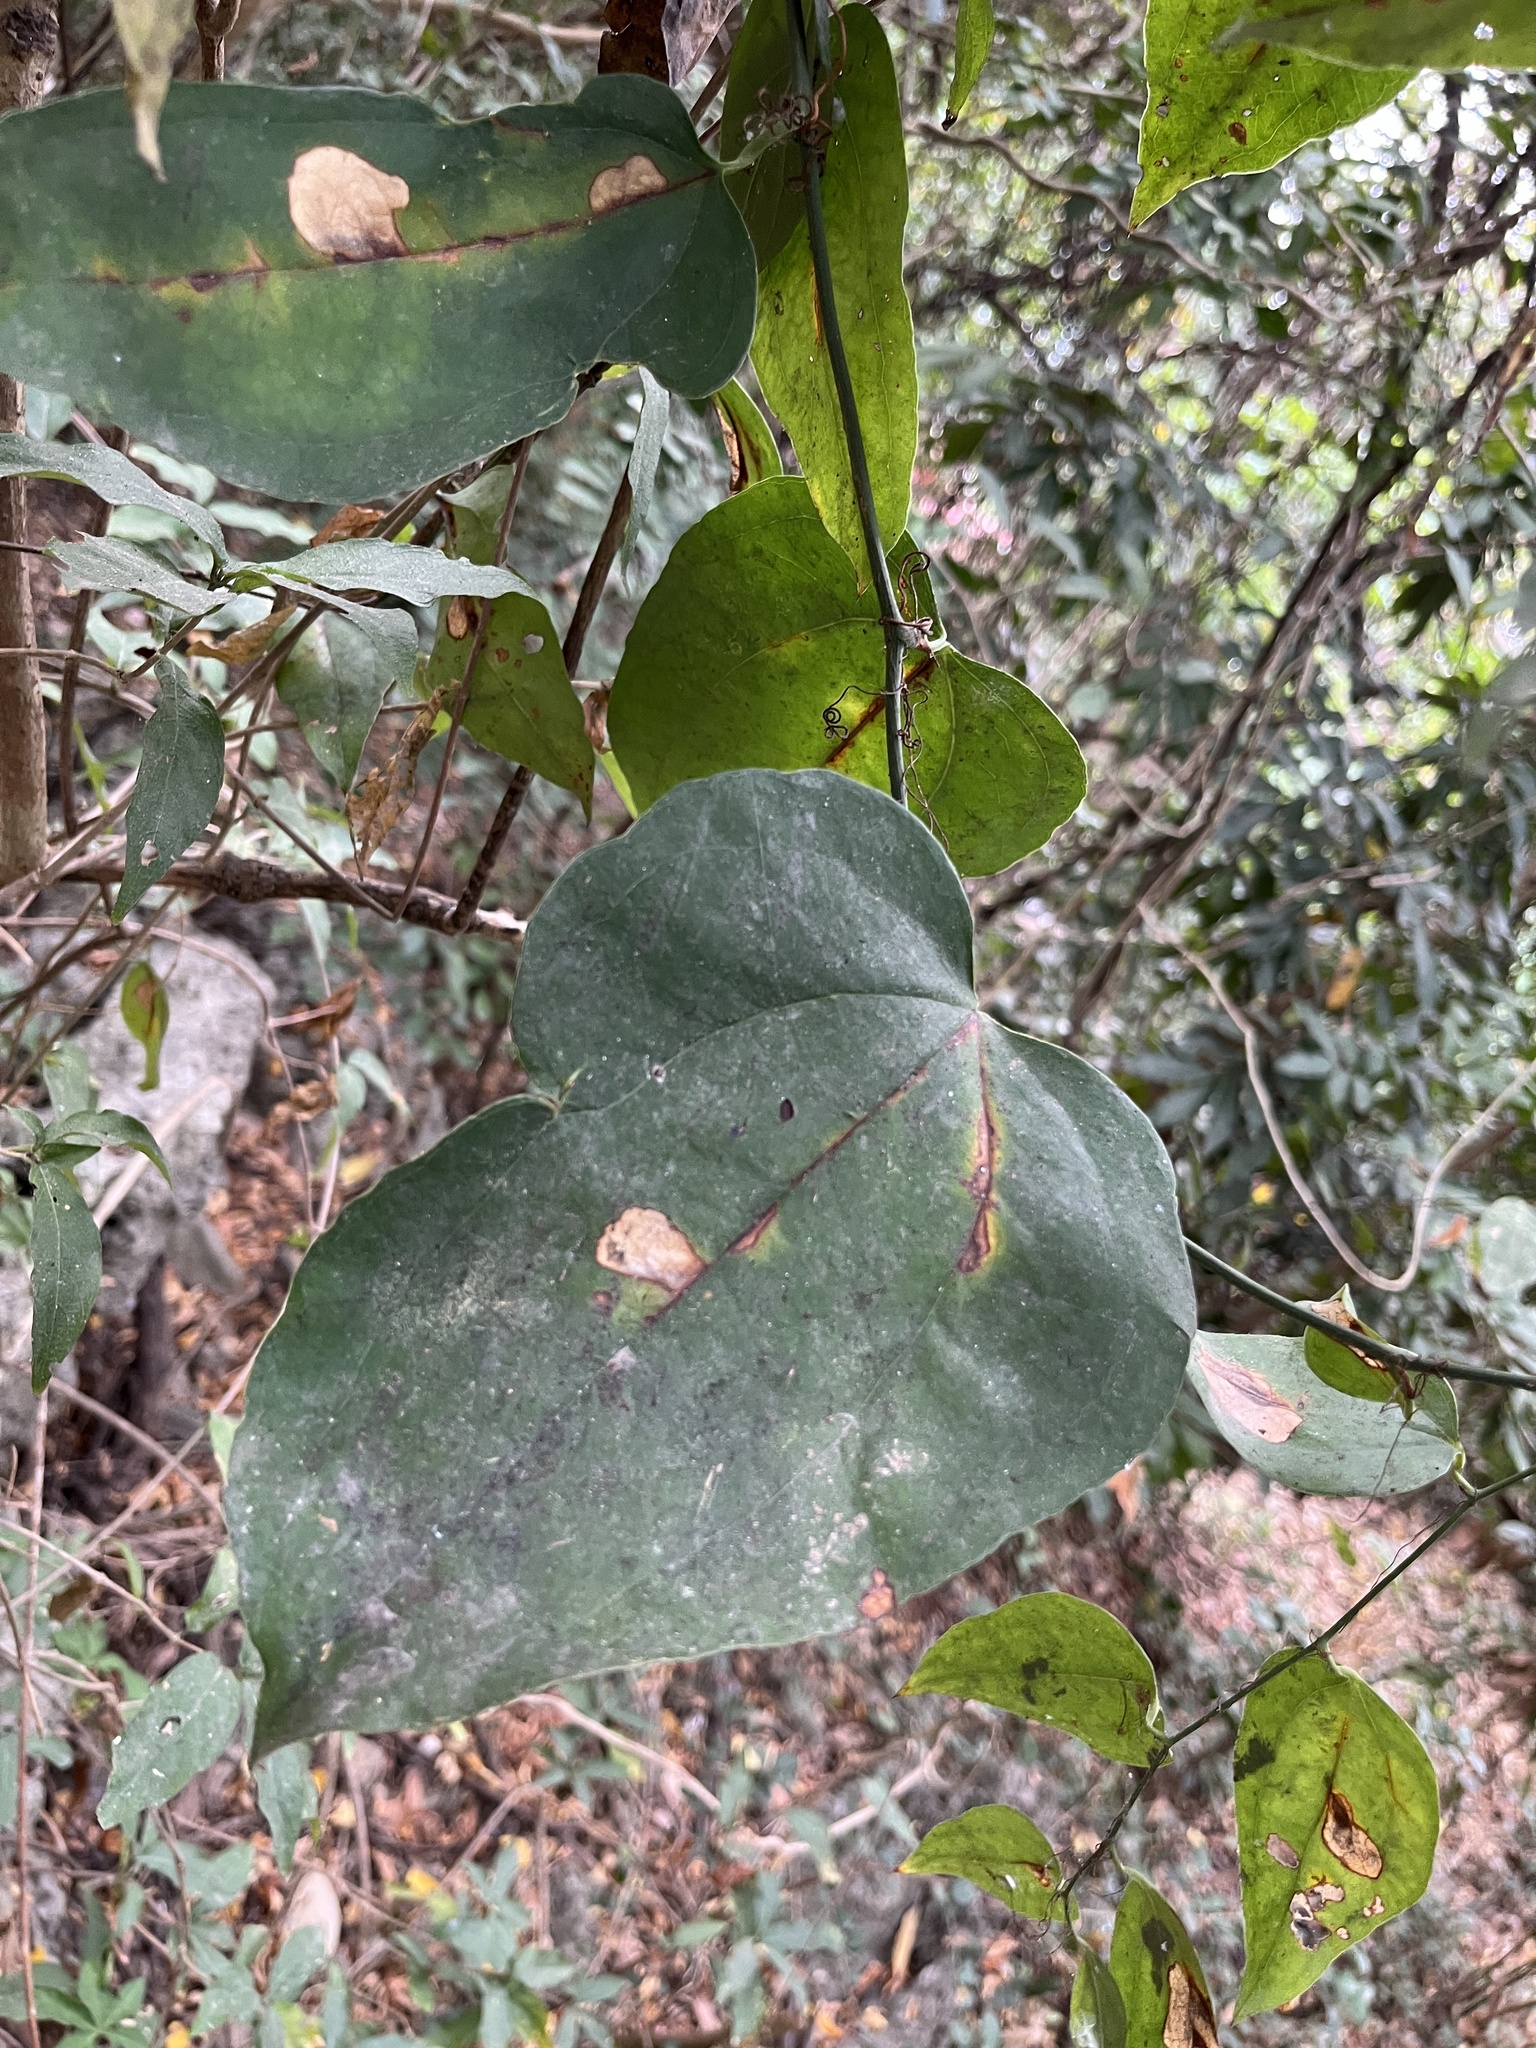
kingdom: Plantae
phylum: Tracheophyta
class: Liliopsida
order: Liliales
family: Smilacaceae
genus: Smilax
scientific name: Smilax china
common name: Chinaroot
